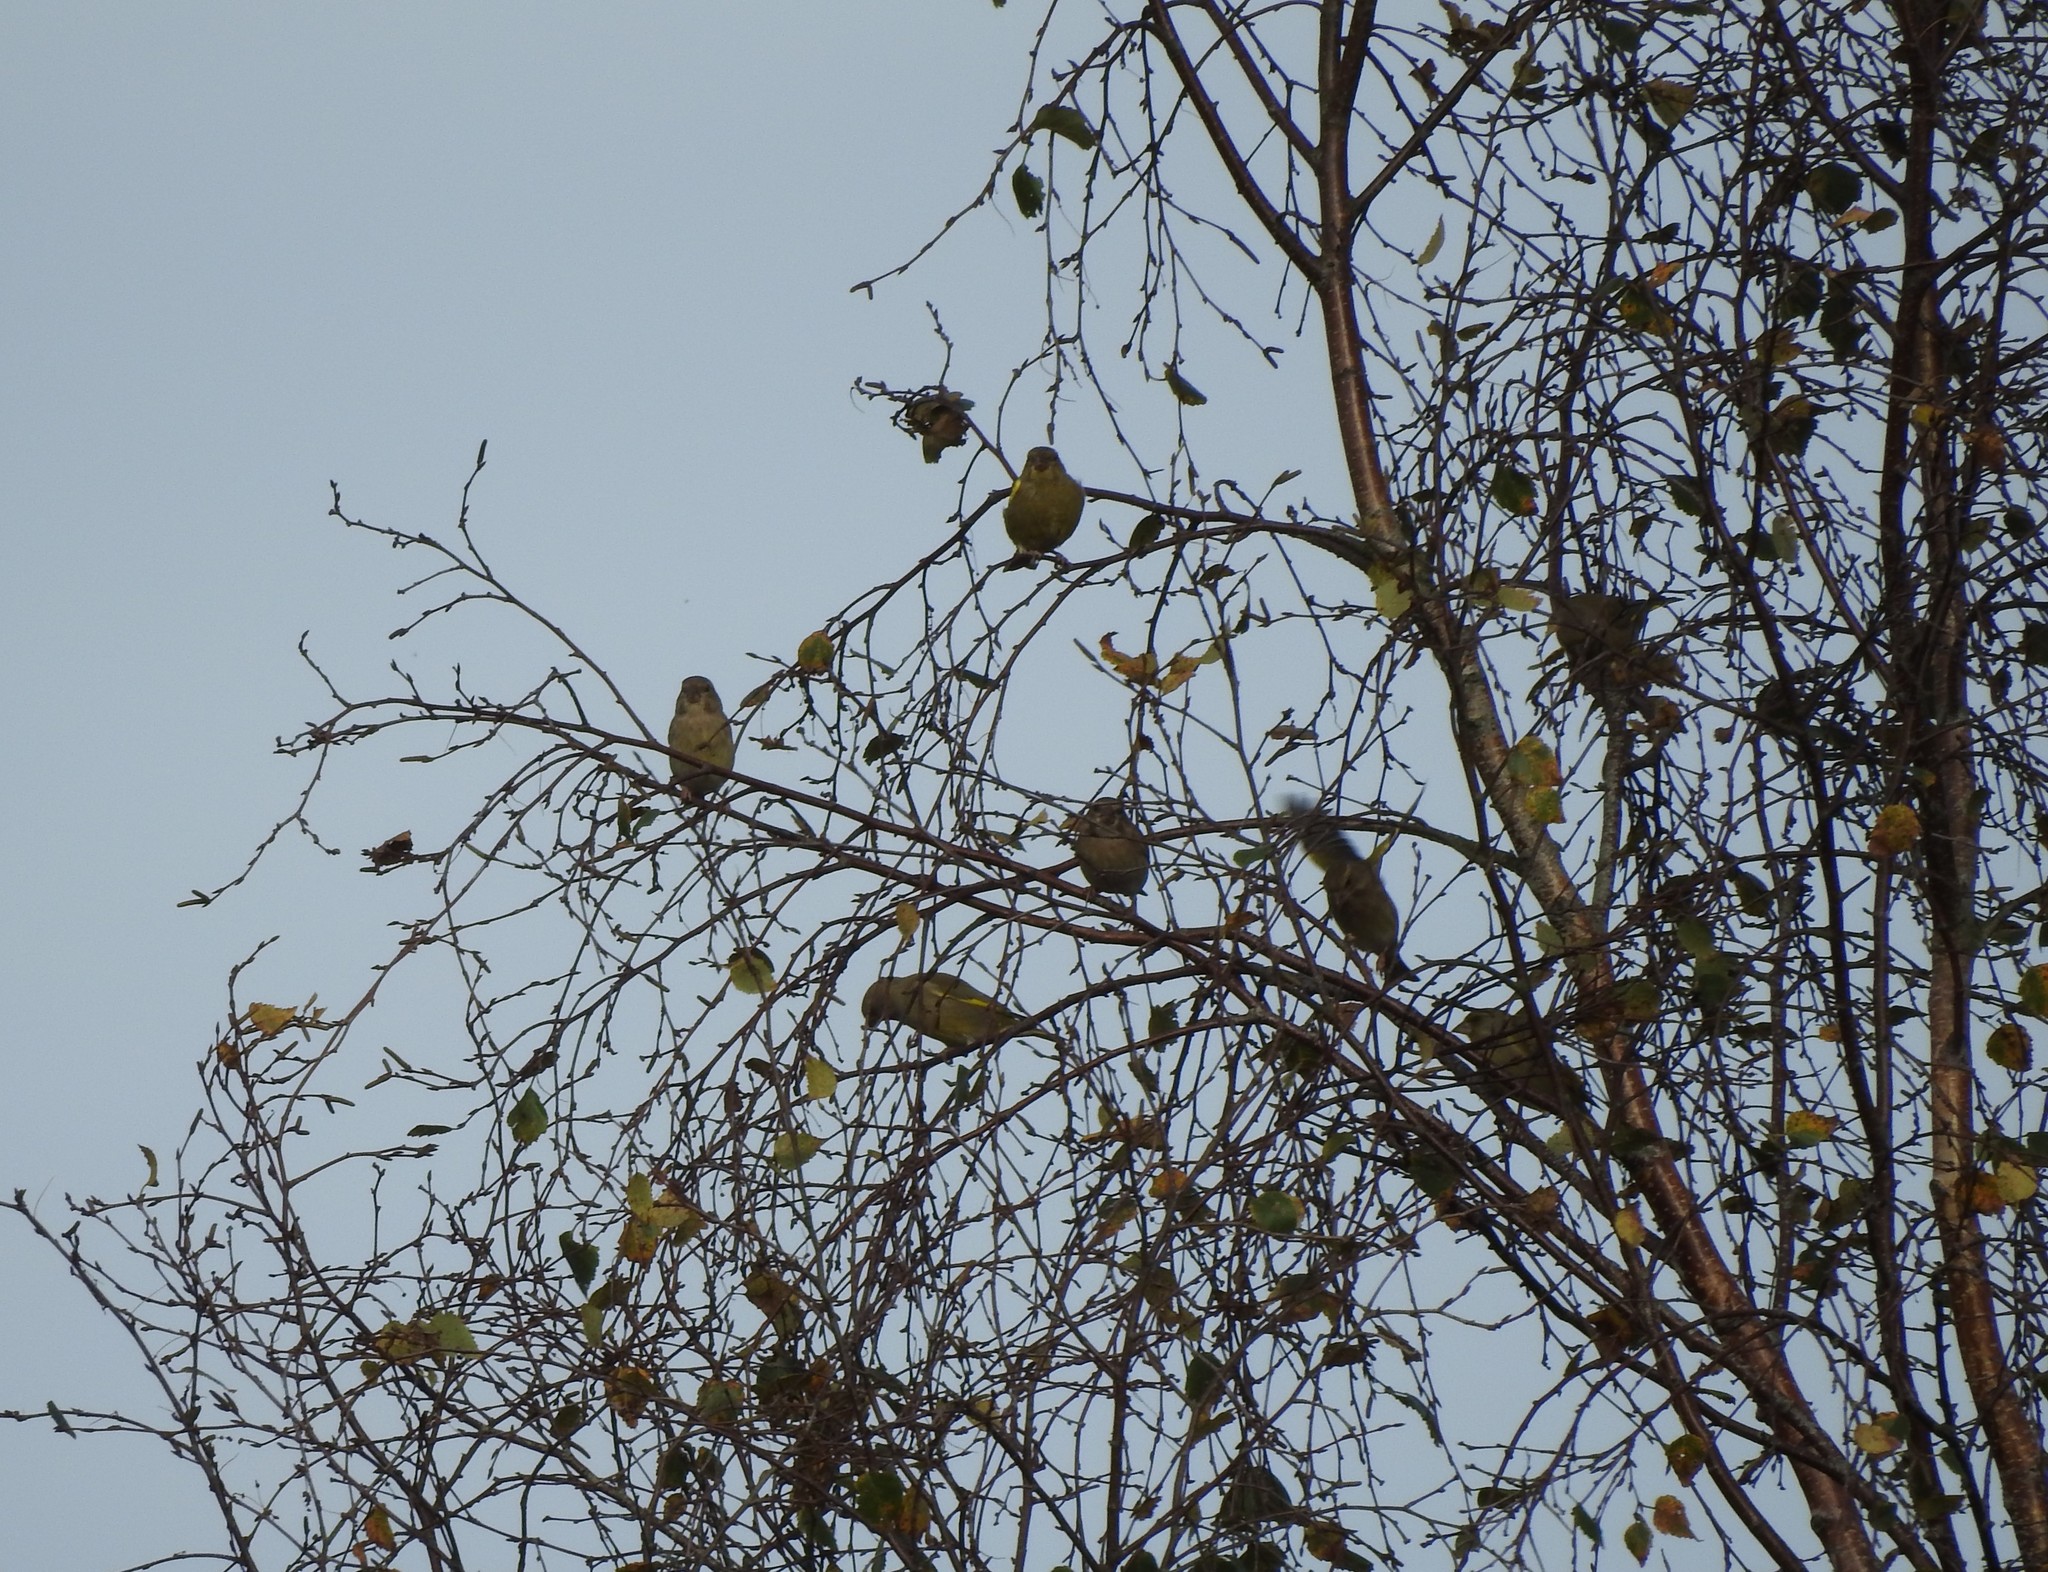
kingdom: Plantae
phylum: Tracheophyta
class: Liliopsida
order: Poales
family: Poaceae
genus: Chloris
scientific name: Chloris chloris
